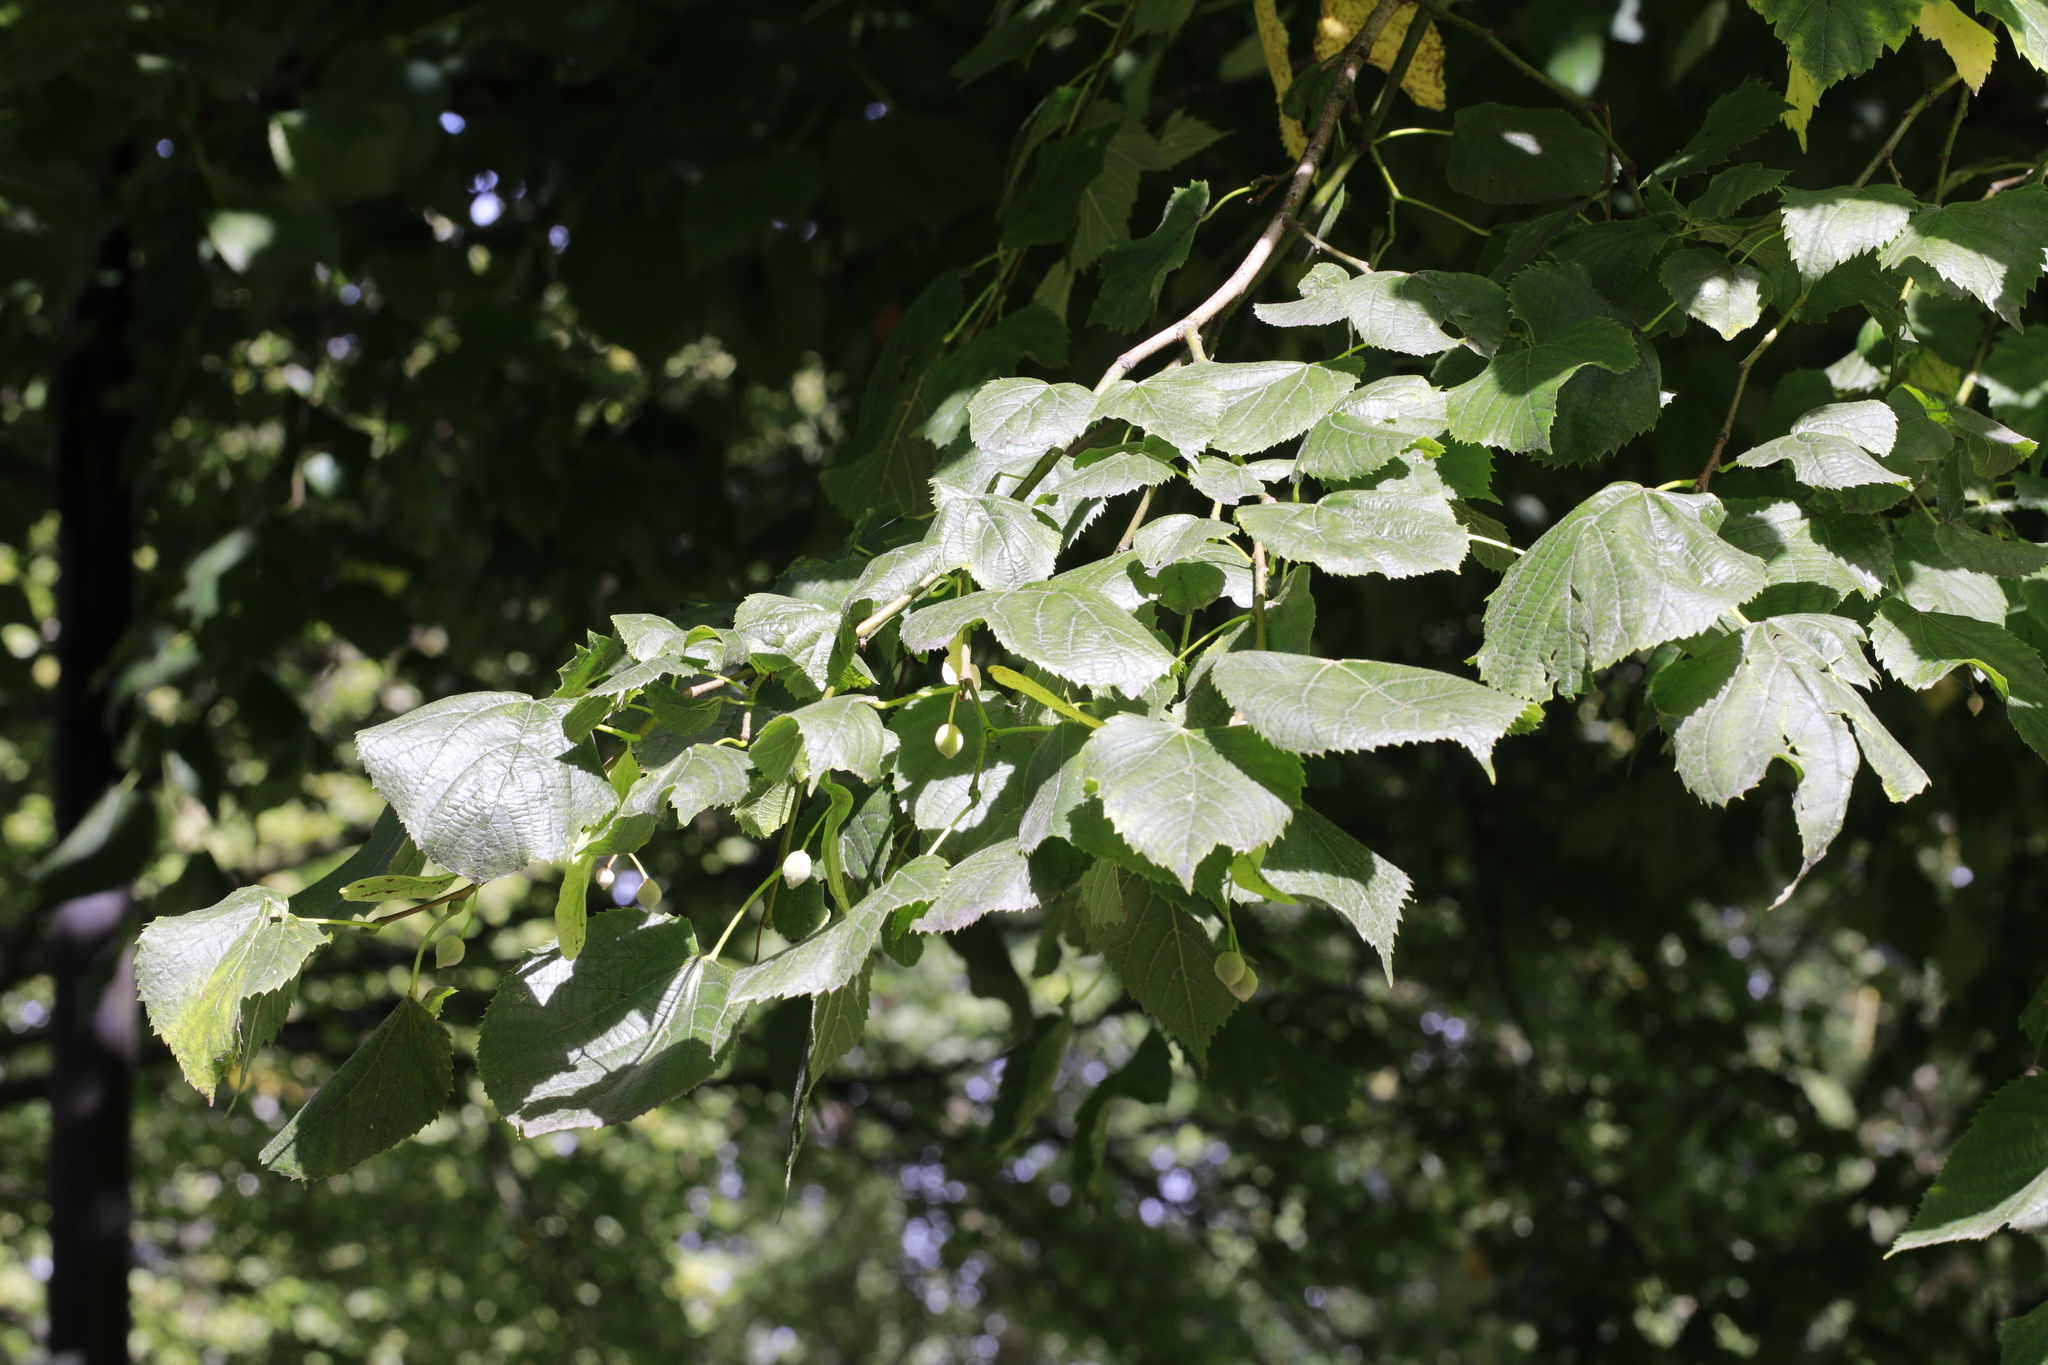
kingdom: Plantae
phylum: Tracheophyta
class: Magnoliopsida
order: Malvales
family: Malvaceae
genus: Tilia
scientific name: Tilia europaea
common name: European linden
